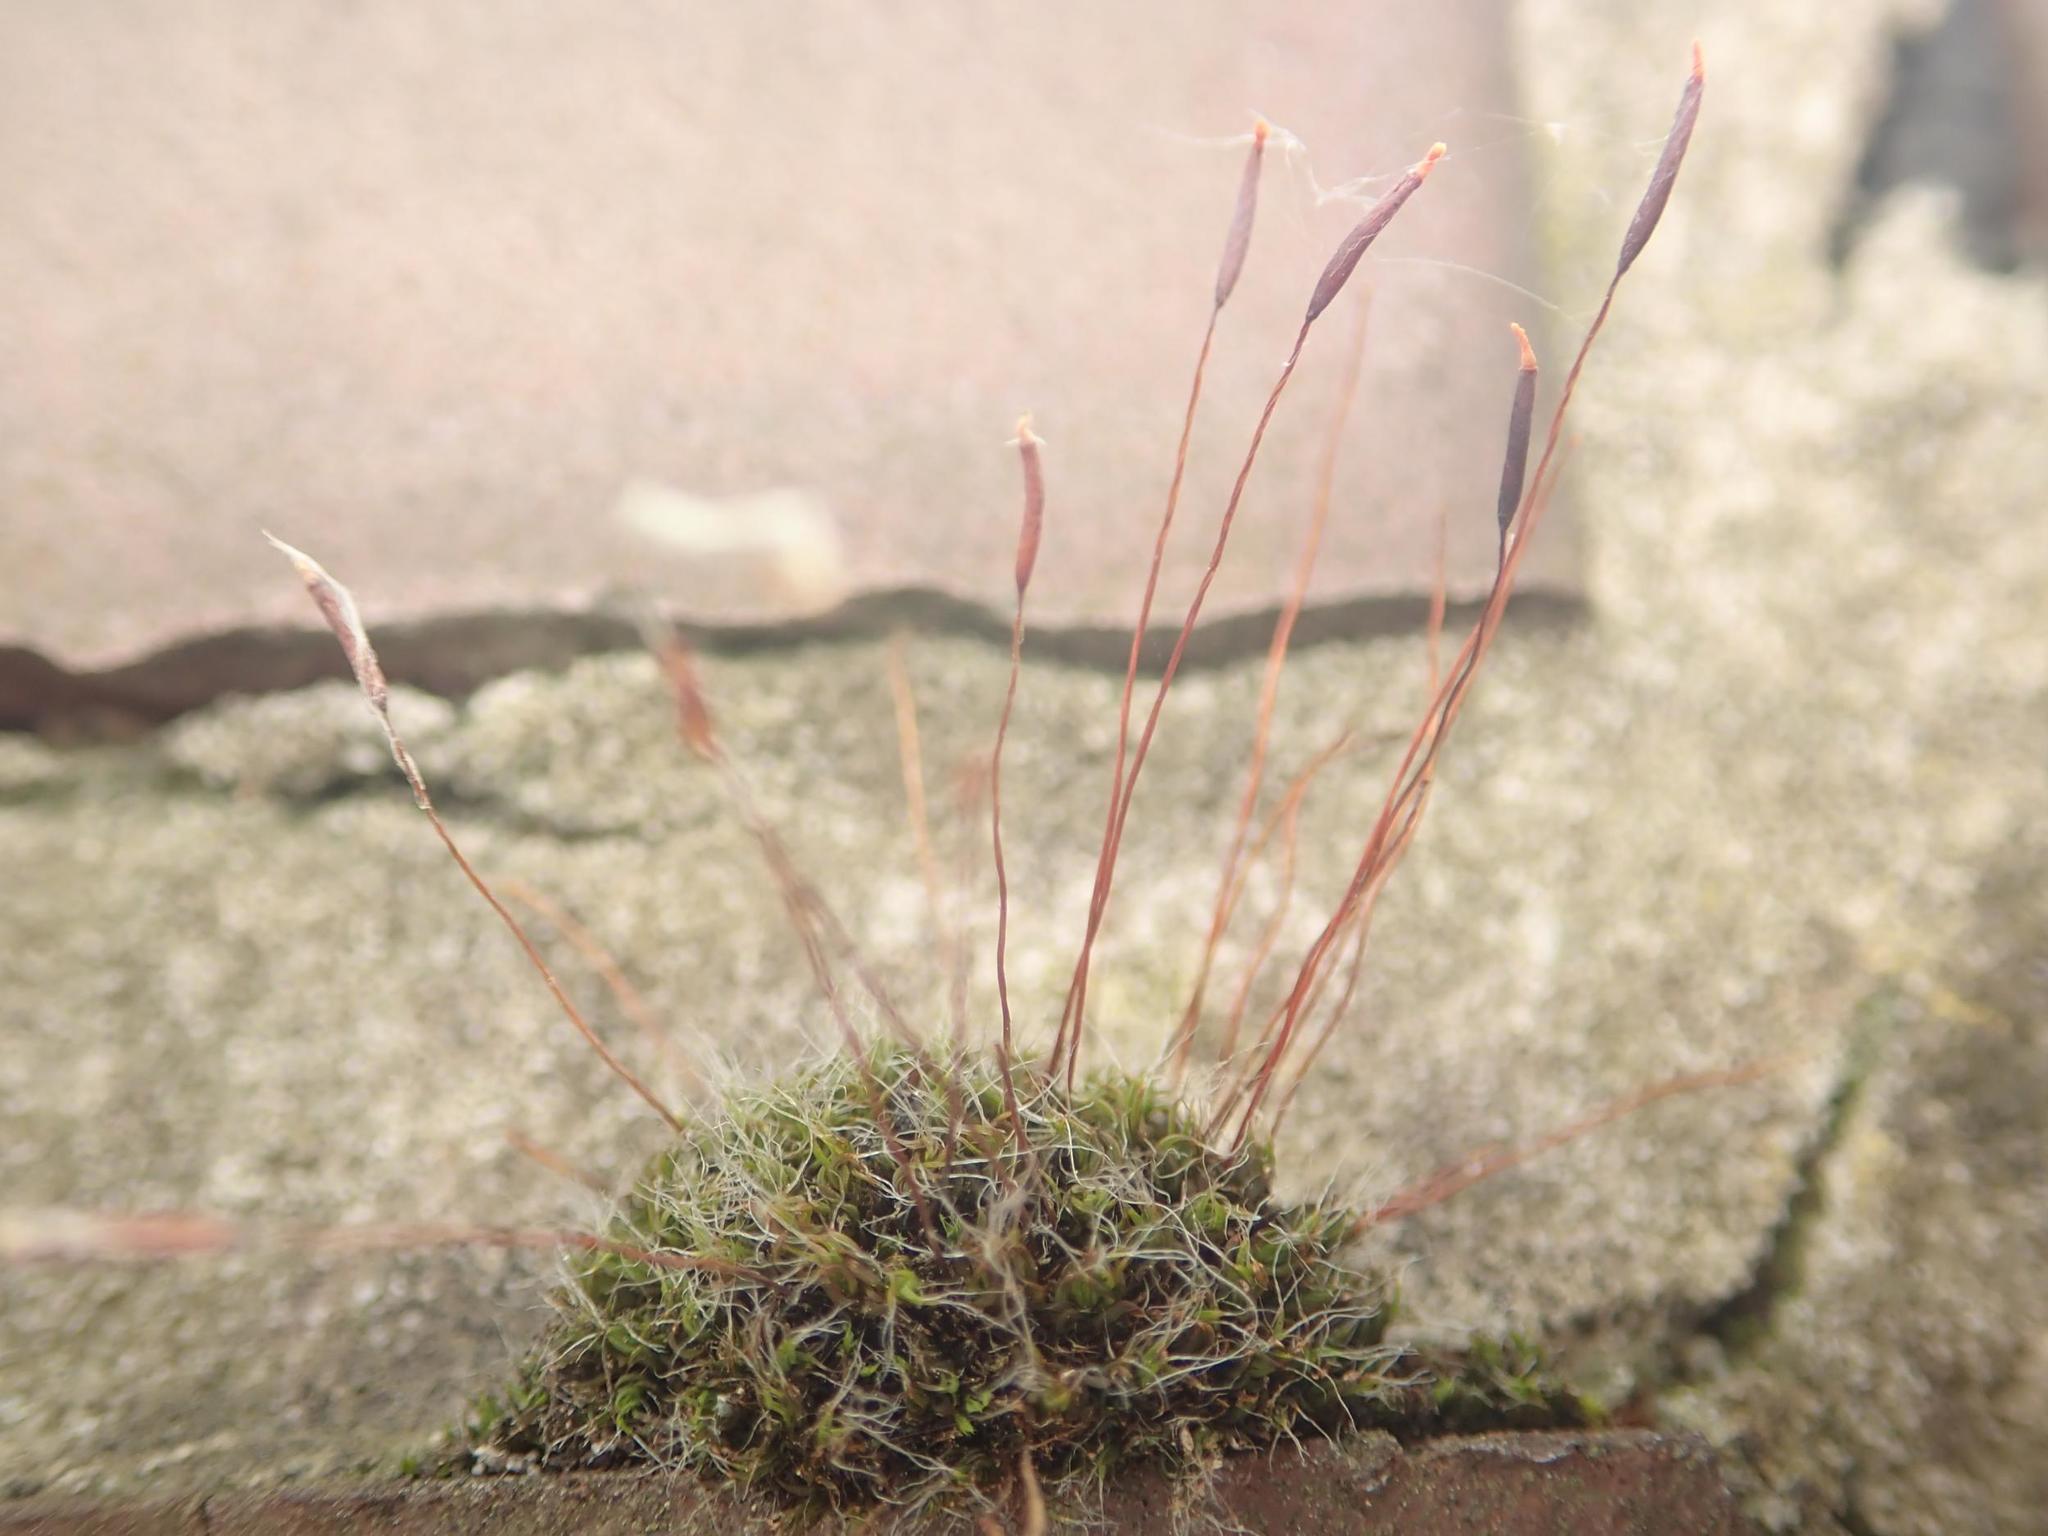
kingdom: Plantae
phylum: Bryophyta
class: Bryopsida
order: Pottiales
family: Pottiaceae
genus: Tortula
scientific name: Tortula muralis
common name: Wall screw-moss
